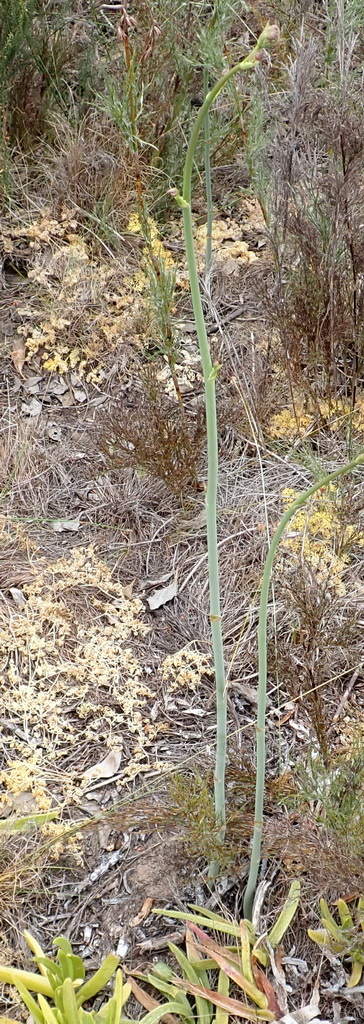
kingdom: Plantae
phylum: Tracheophyta
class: Magnoliopsida
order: Apiales
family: Apiaceae
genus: Annesorhiza
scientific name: Annesorhiza macrocarpa
